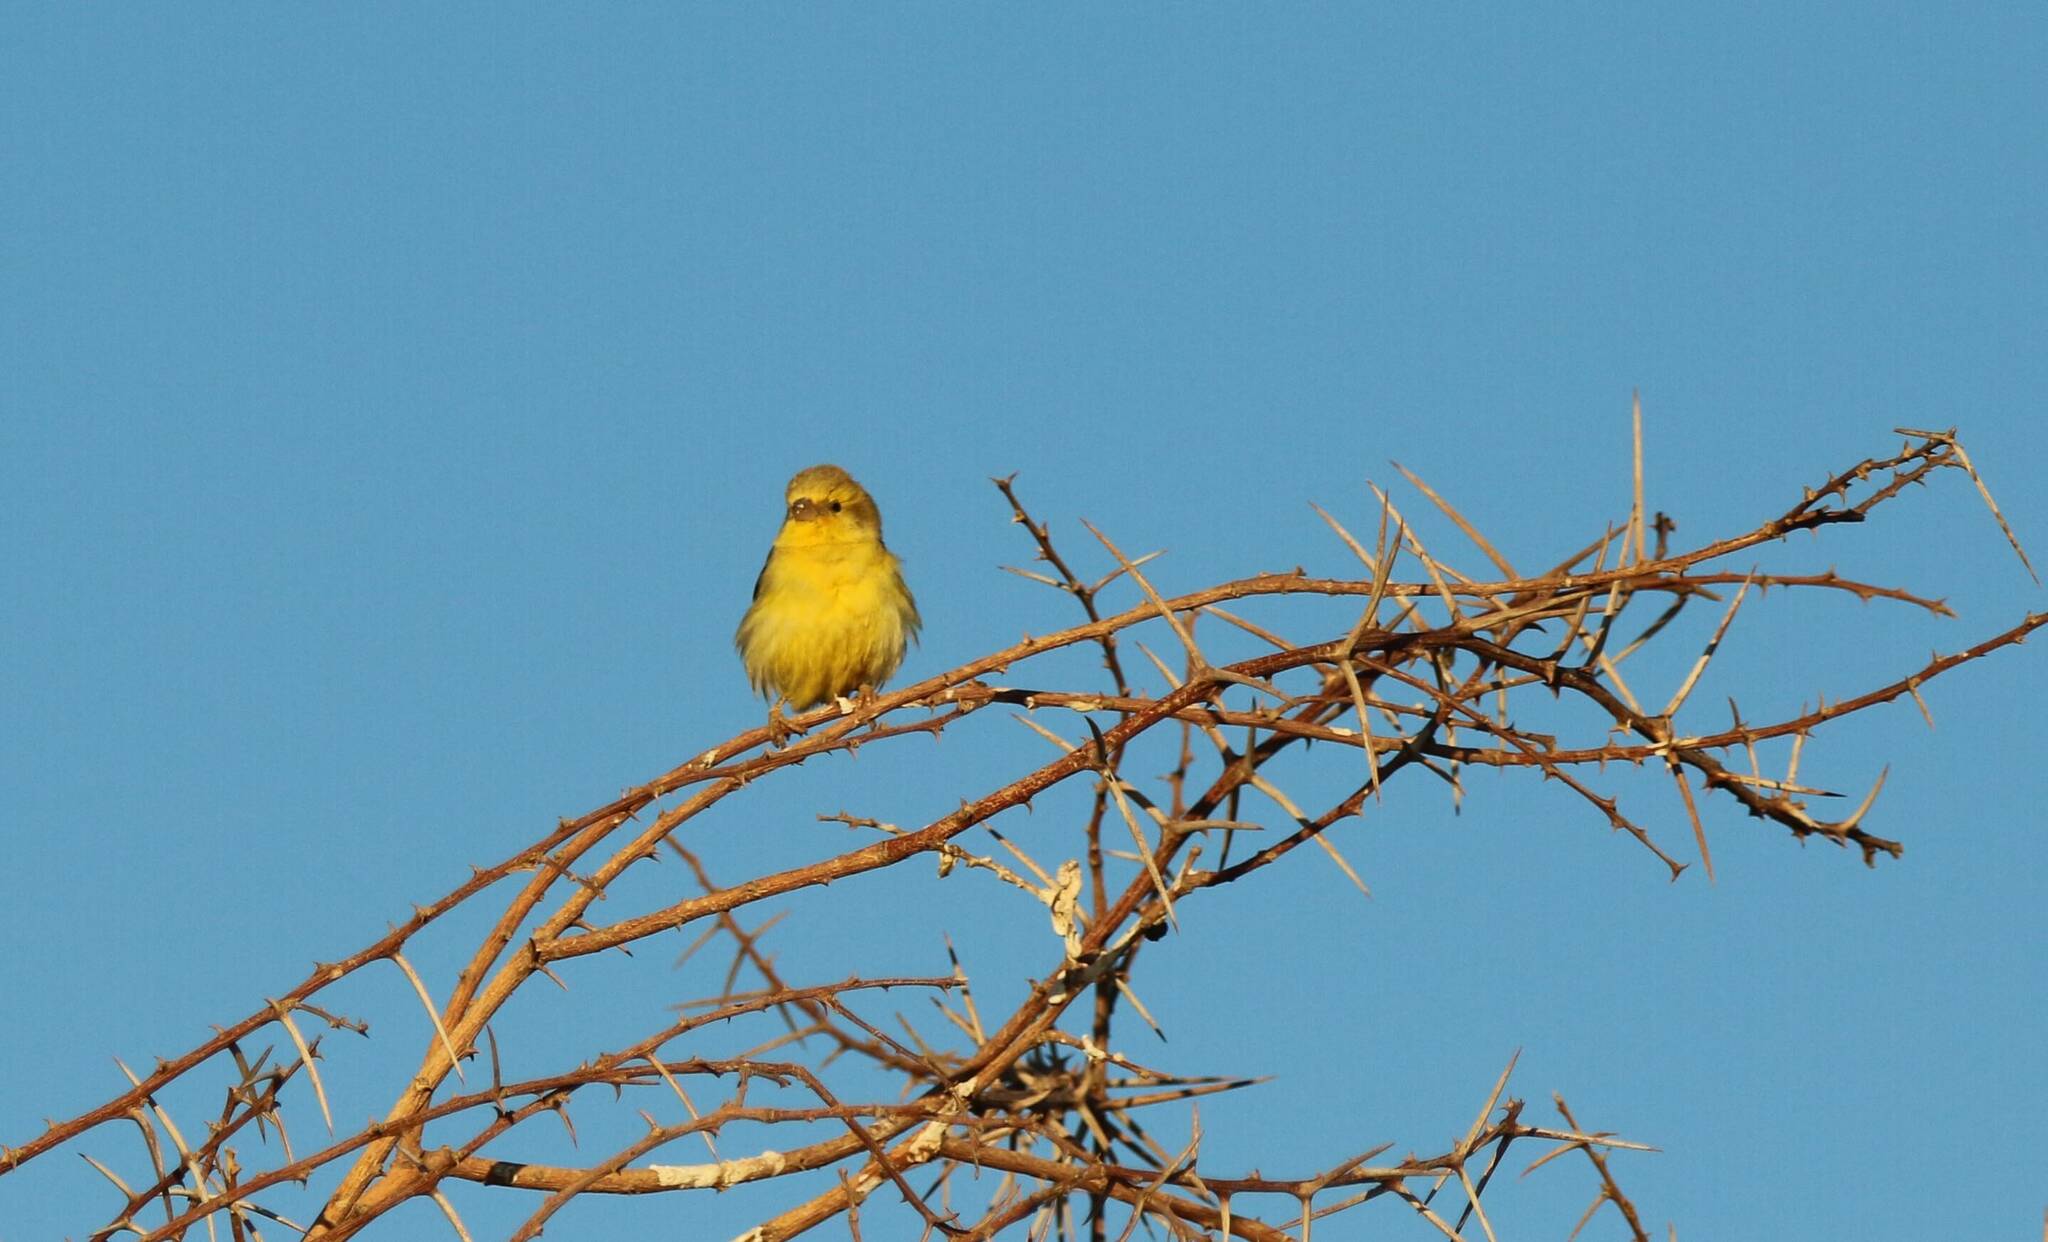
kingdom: Animalia
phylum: Chordata
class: Aves
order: Passeriformes
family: Passeridae
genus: Passer
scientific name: Passer luteus
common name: Sudan golden sparrow
